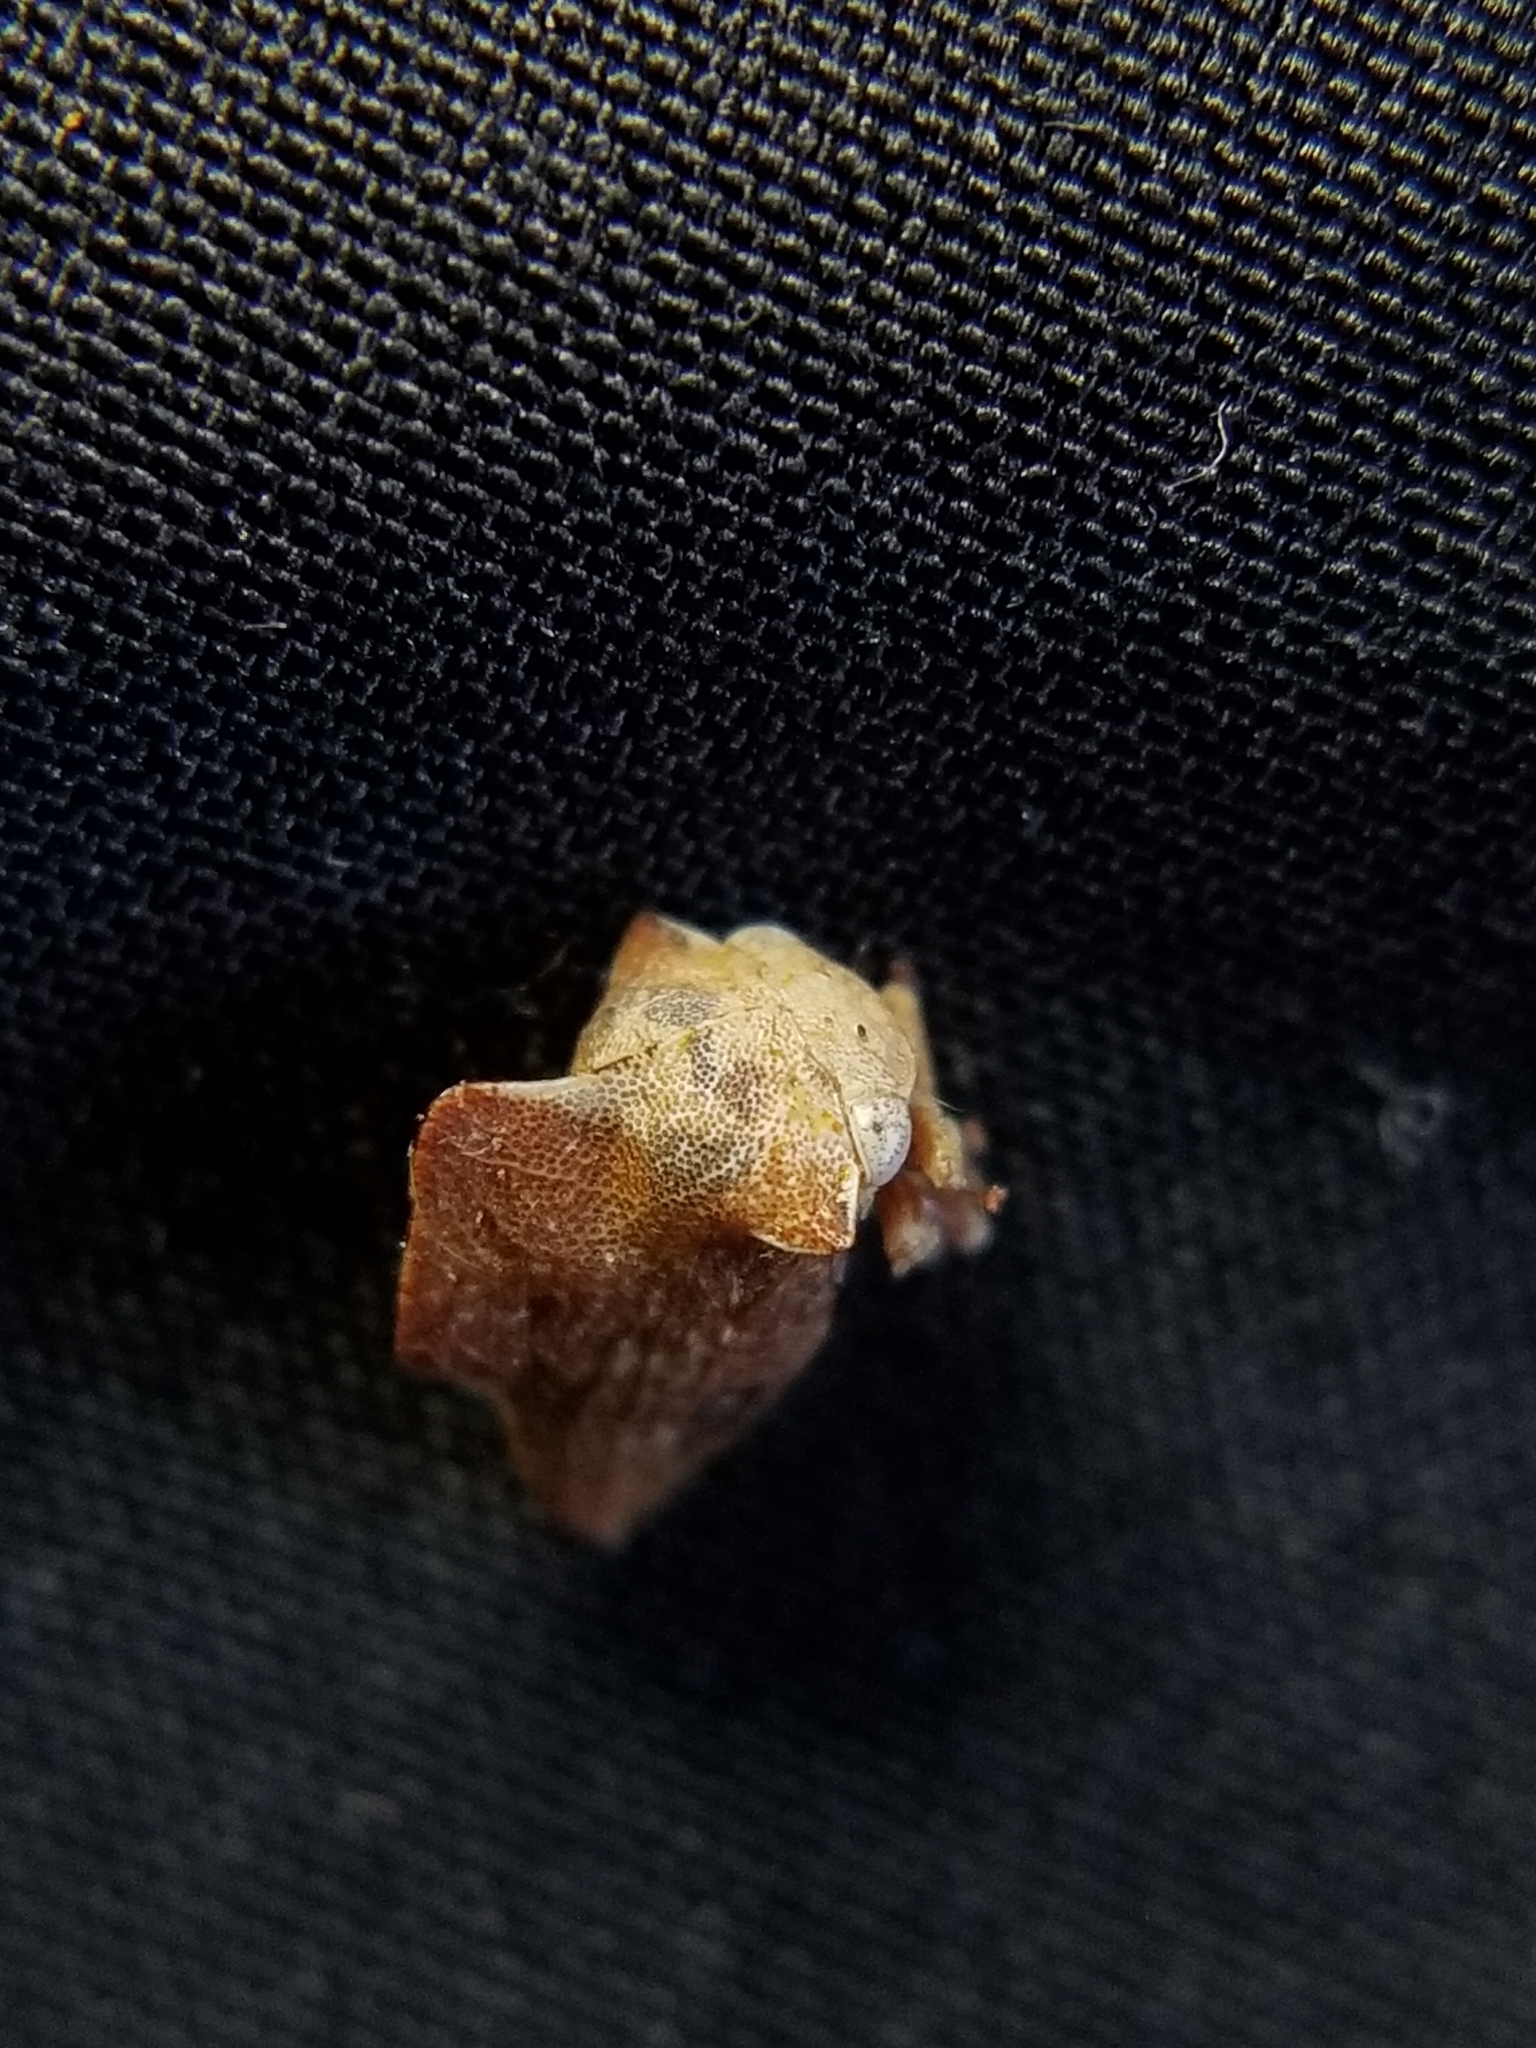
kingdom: Animalia
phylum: Arthropoda
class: Insecta
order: Hemiptera
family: Membracidae
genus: Telamonanthe
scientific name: Telamonanthe pulchella
